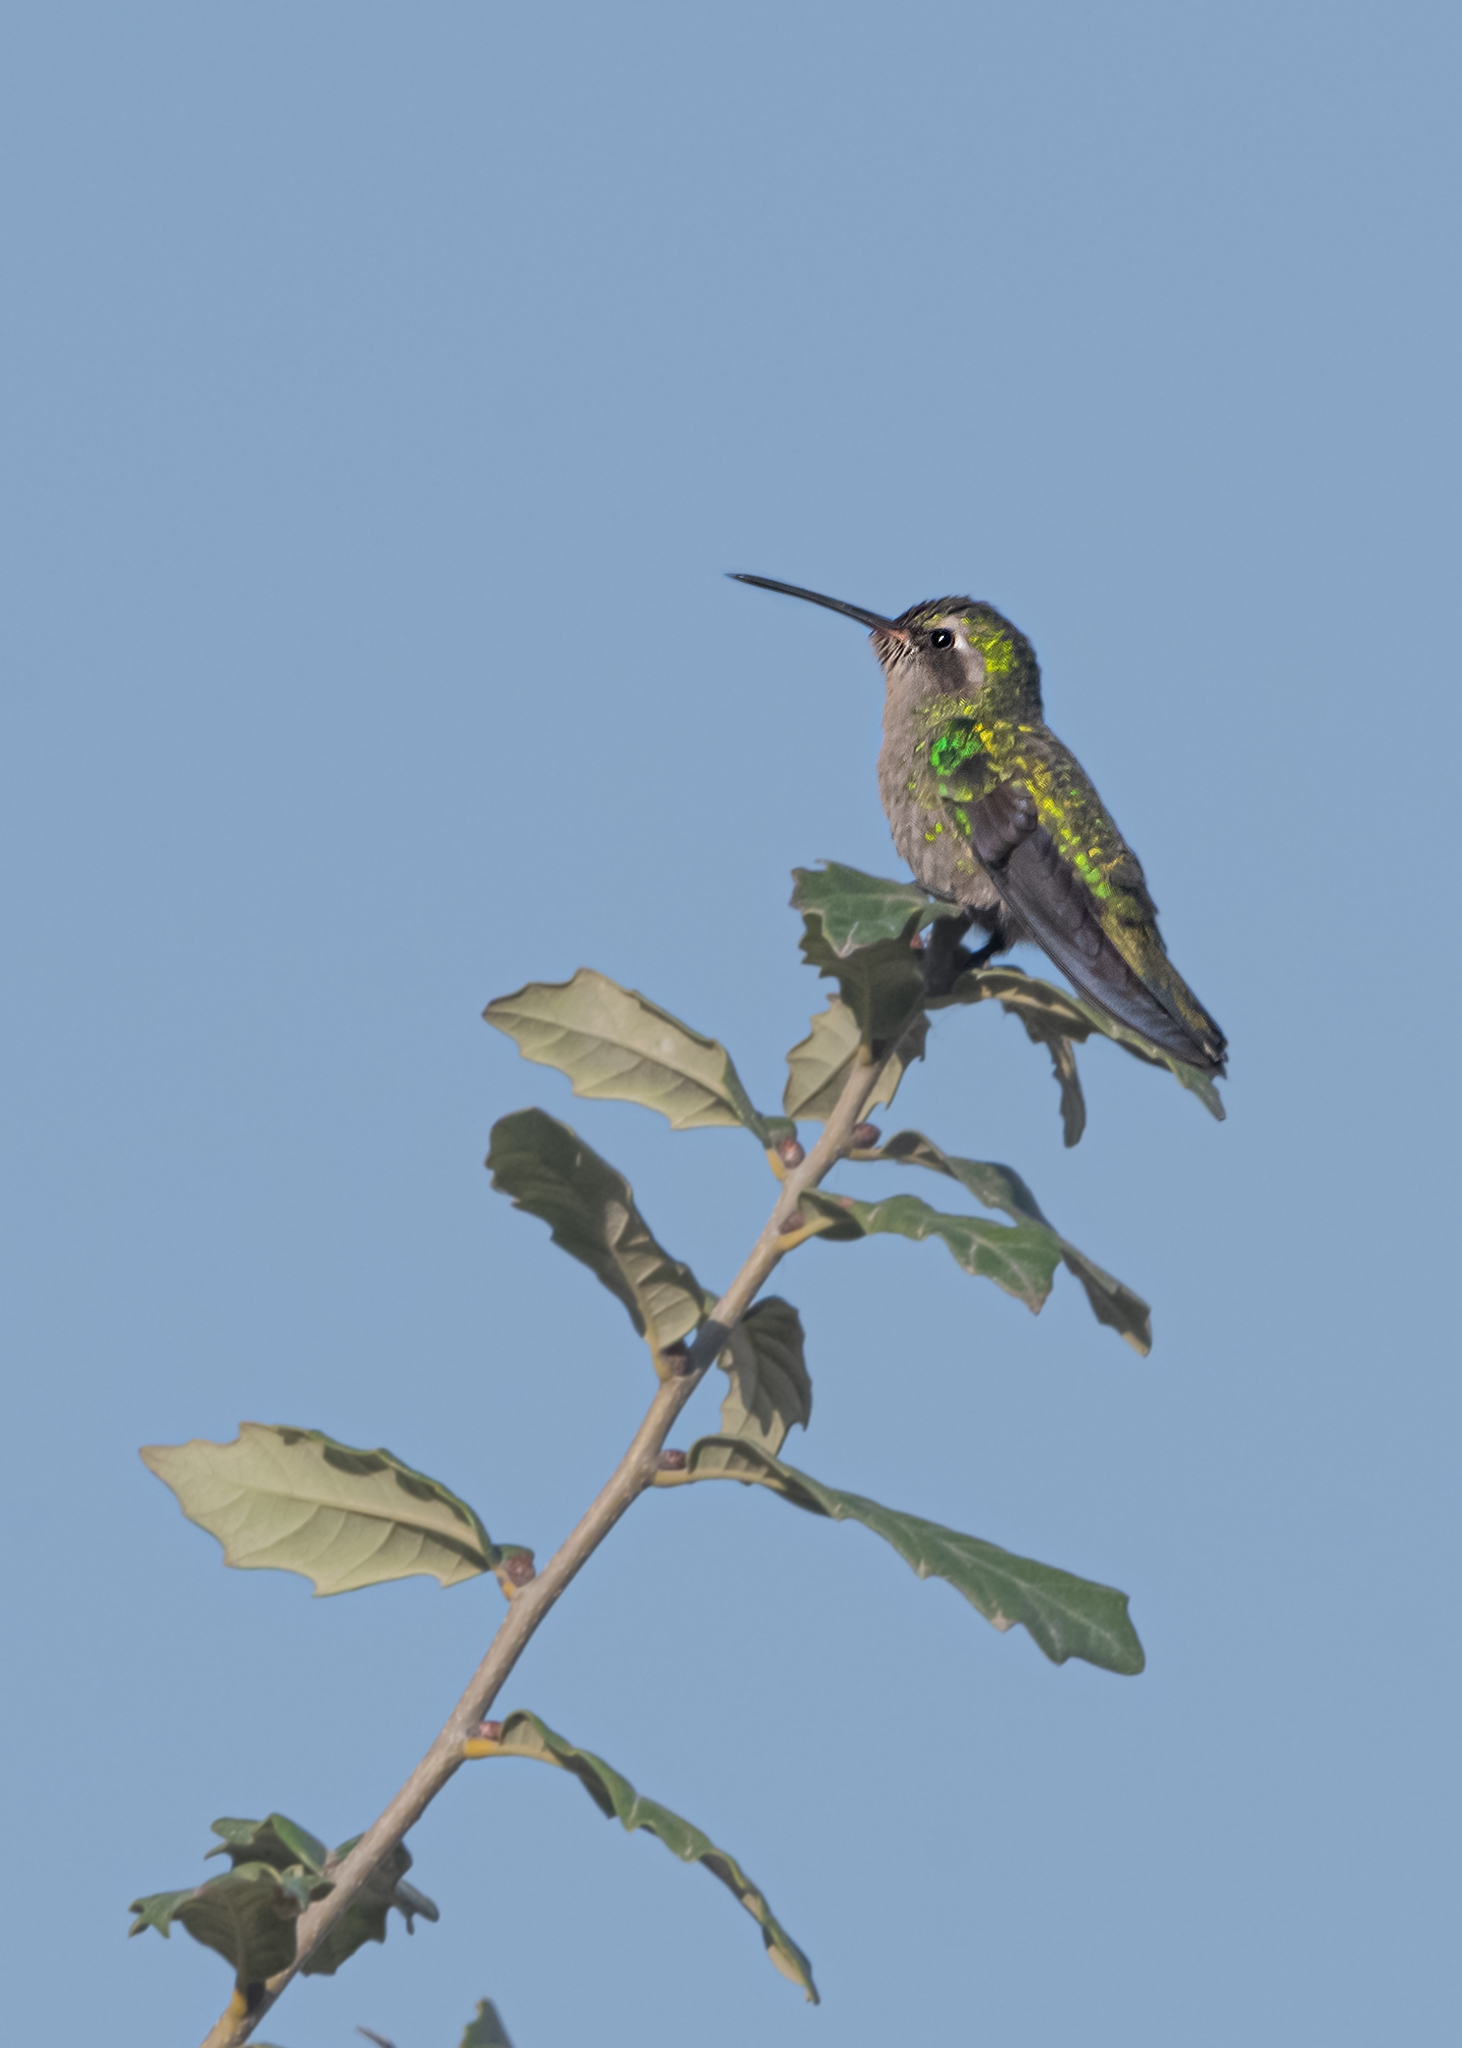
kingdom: Animalia
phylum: Chordata
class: Aves
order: Apodiformes
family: Trochilidae
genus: Cynanthus
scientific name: Cynanthus latirostris
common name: Broad-billed hummingbird
